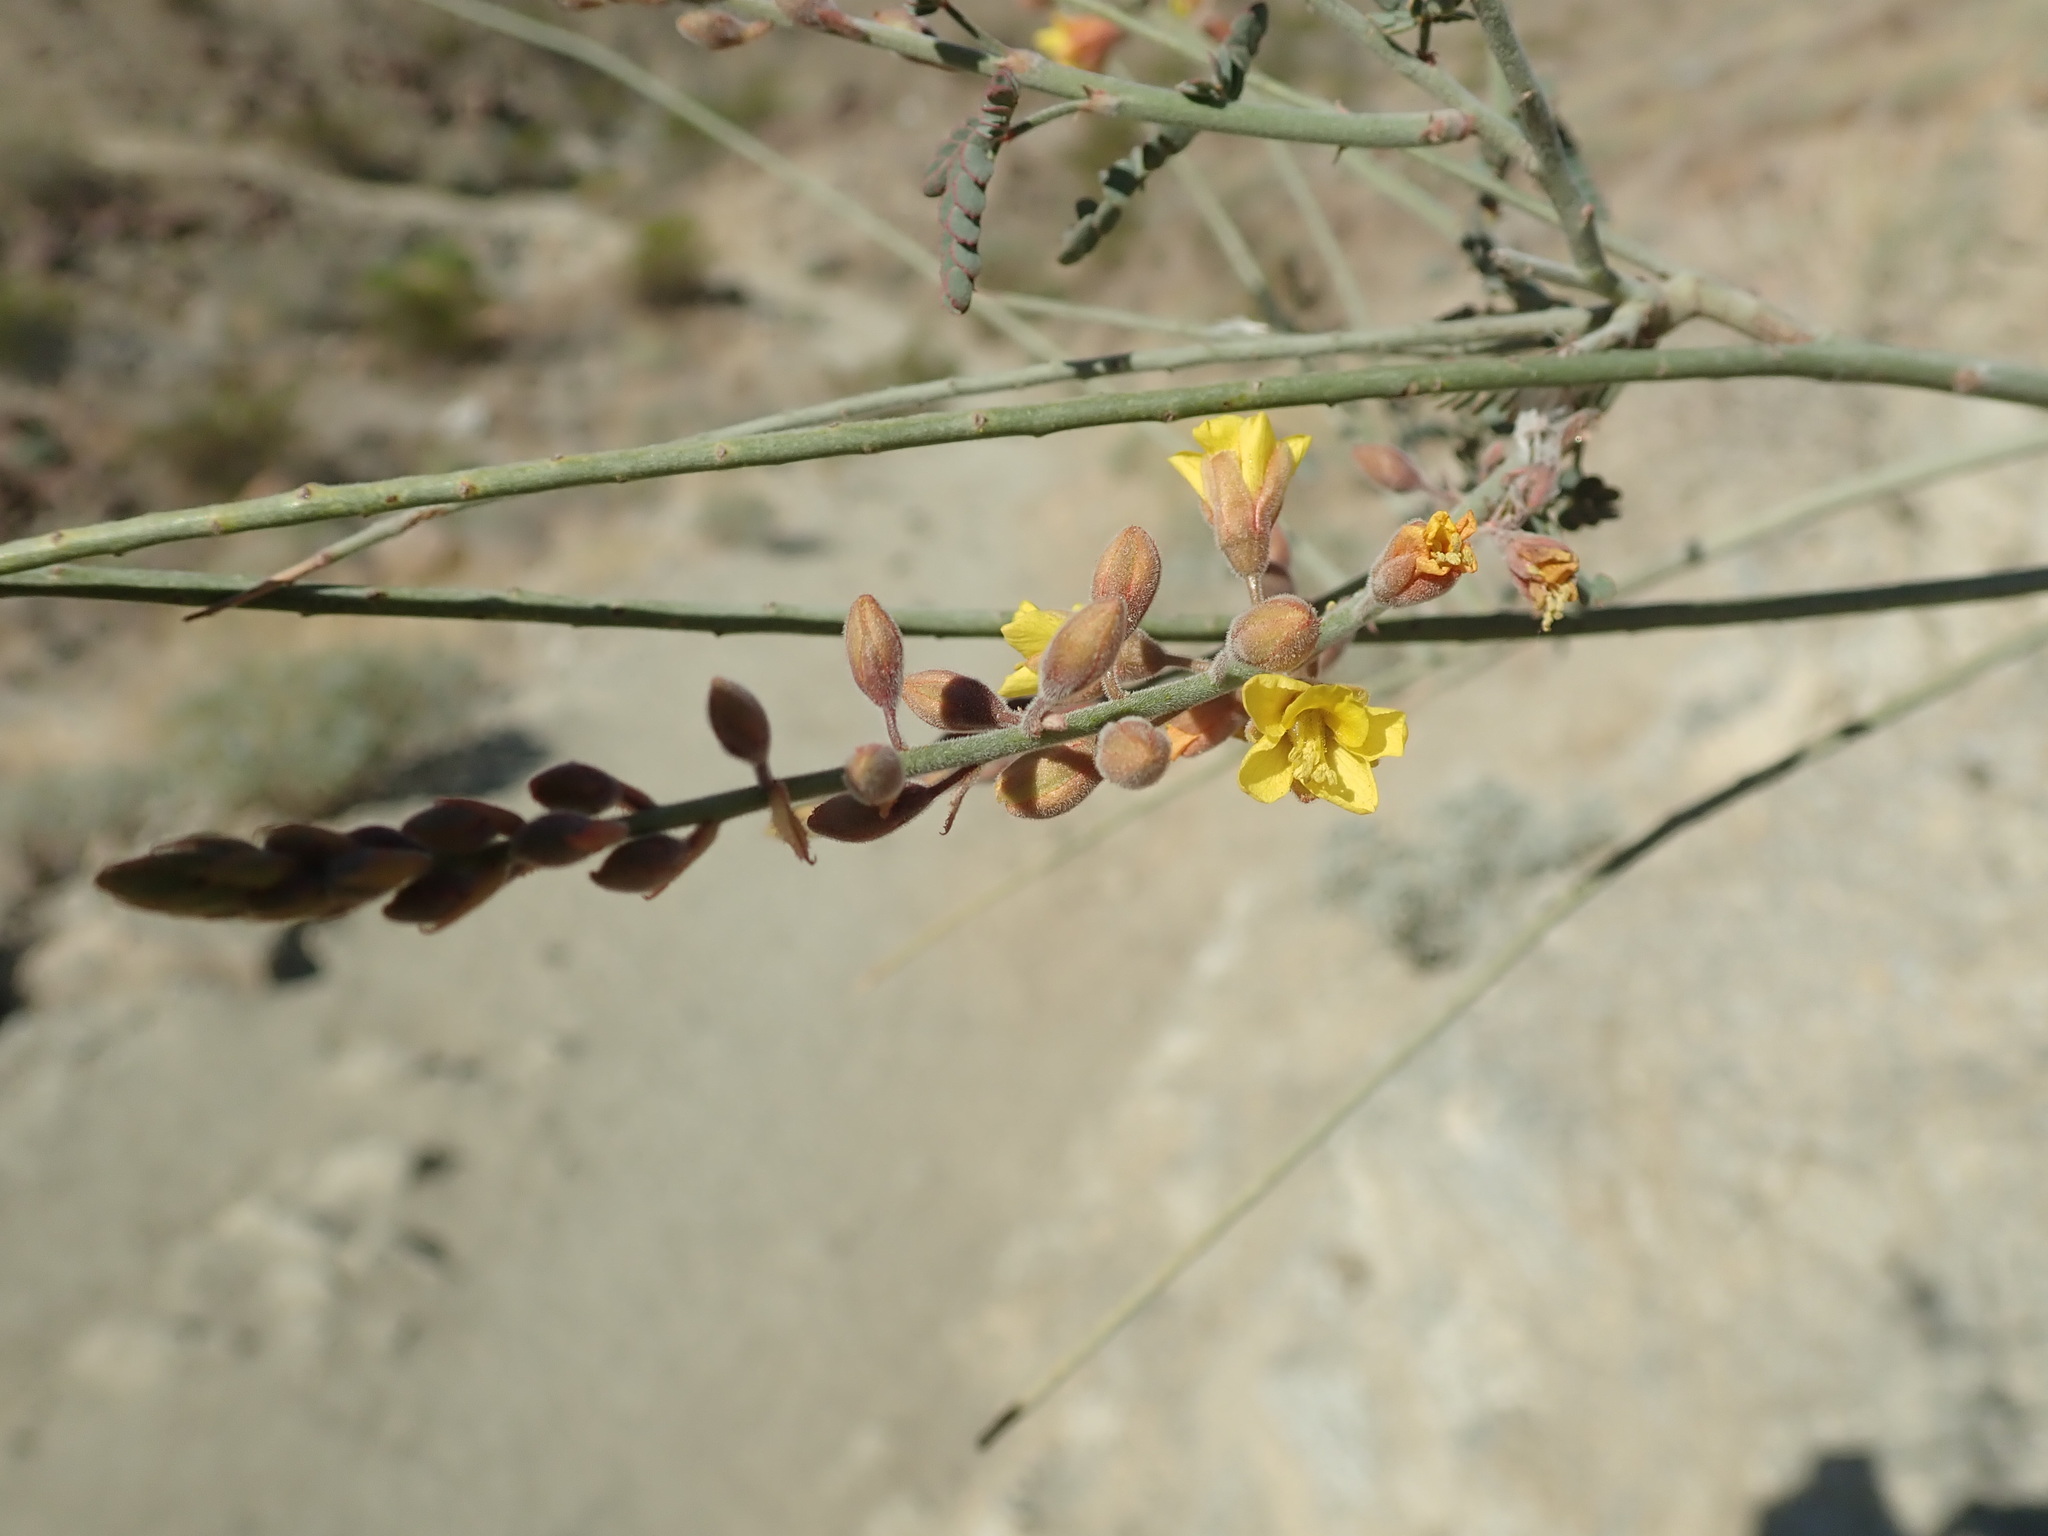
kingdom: Plantae
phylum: Tracheophyta
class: Magnoliopsida
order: Fabales
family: Fabaceae
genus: Hoffmannseggia
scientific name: Hoffmannseggia microphylla
